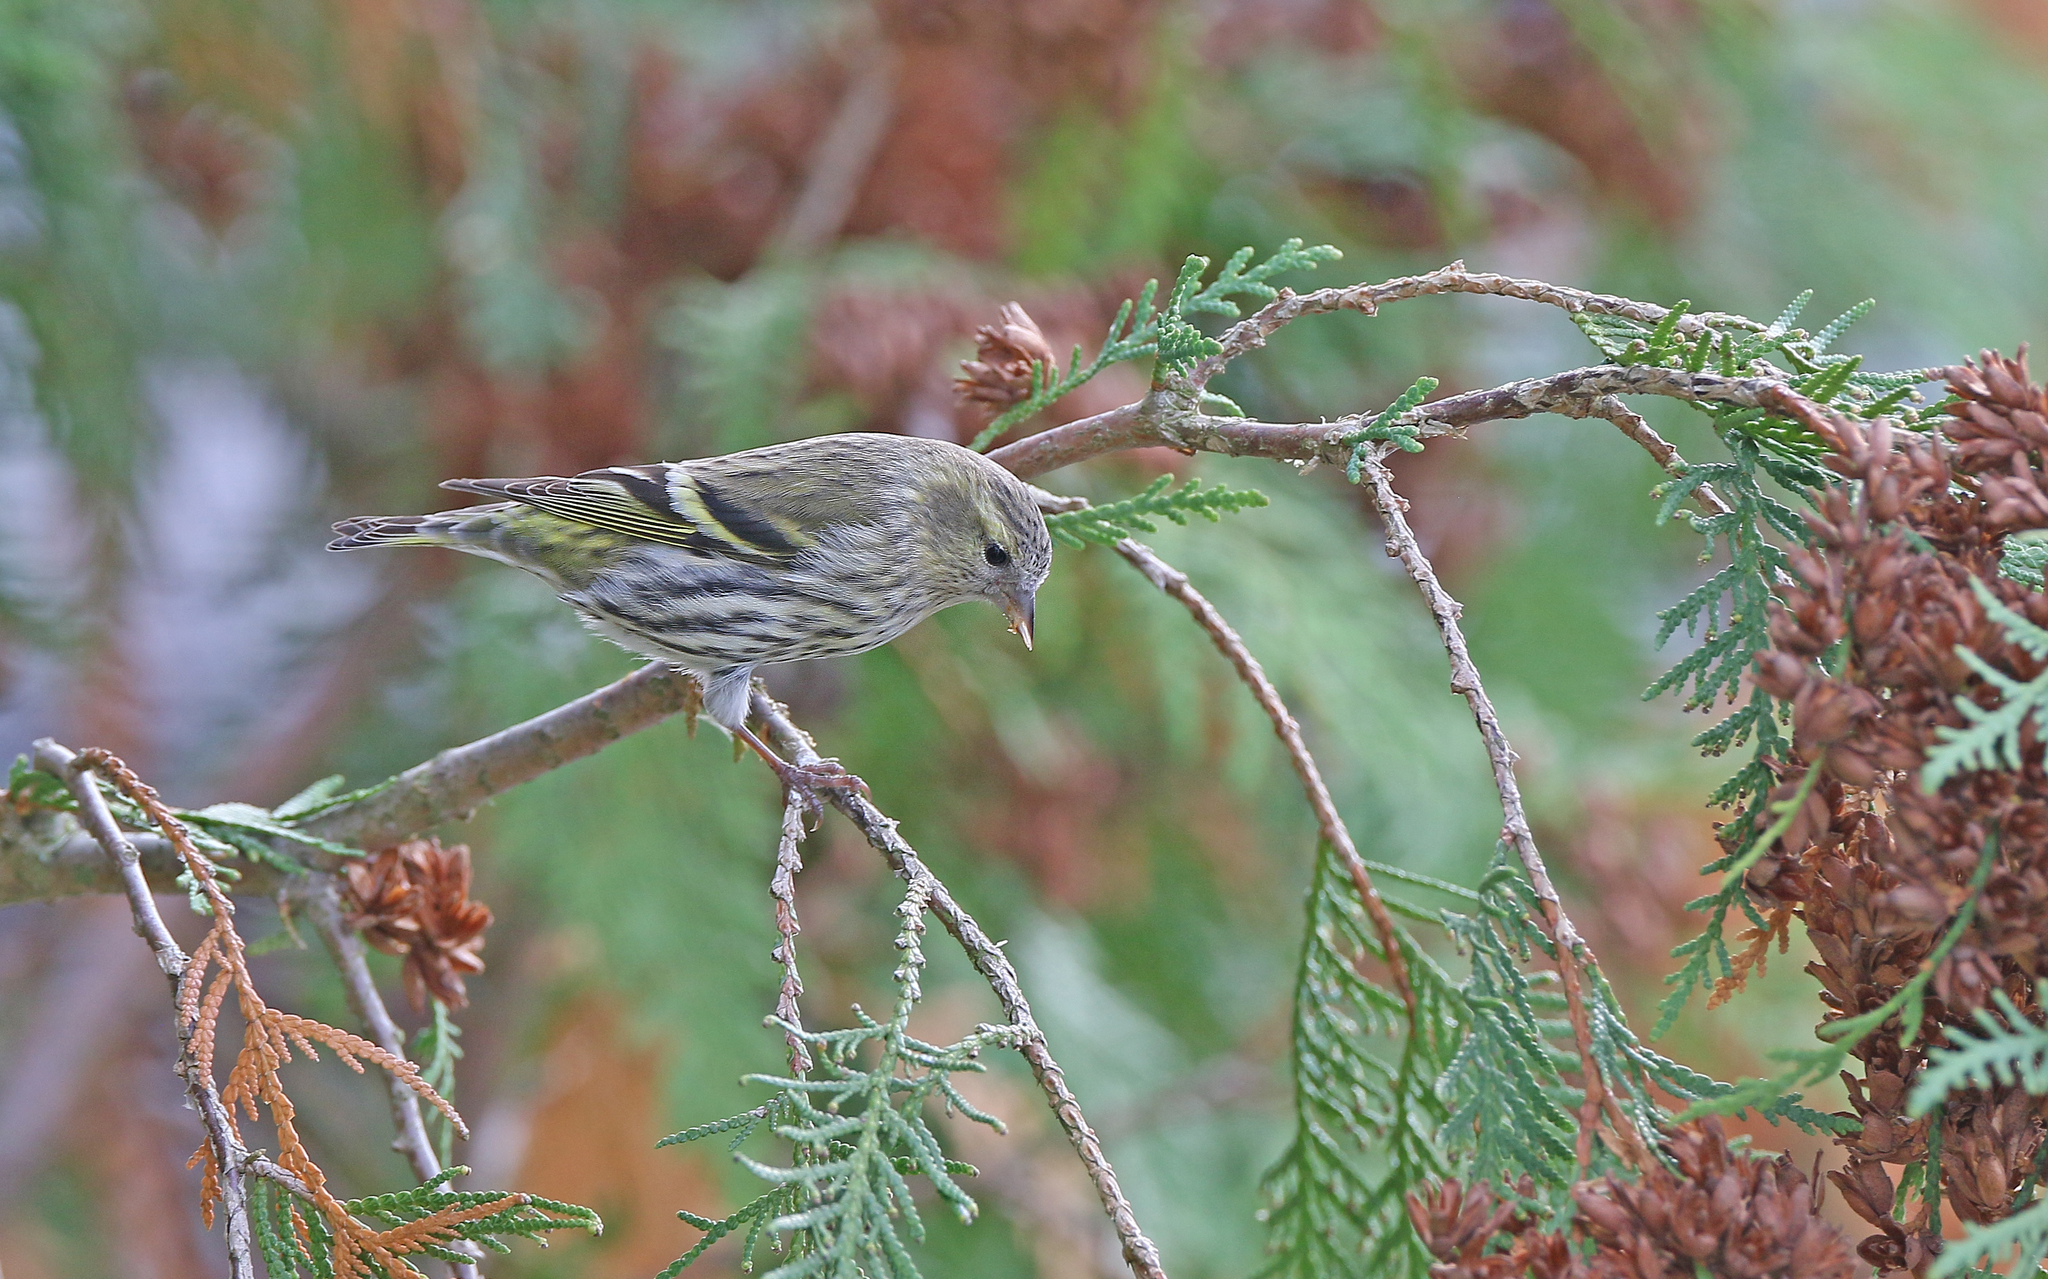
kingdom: Animalia
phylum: Chordata
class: Aves
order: Passeriformes
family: Fringillidae
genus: Spinus
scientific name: Spinus spinus
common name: Eurasian siskin
